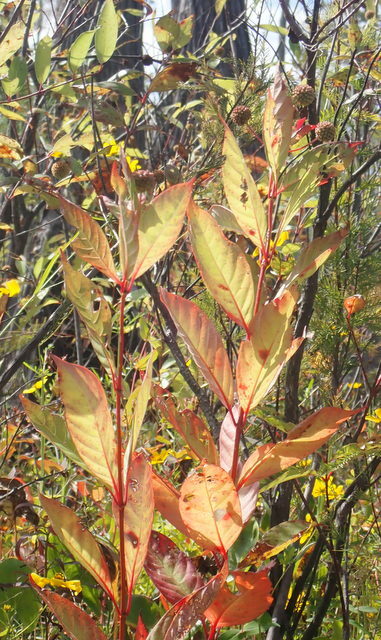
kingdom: Plantae
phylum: Tracheophyta
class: Magnoliopsida
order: Gentianales
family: Rubiaceae
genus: Cephalanthus
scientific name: Cephalanthus occidentalis
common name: Button-willow
